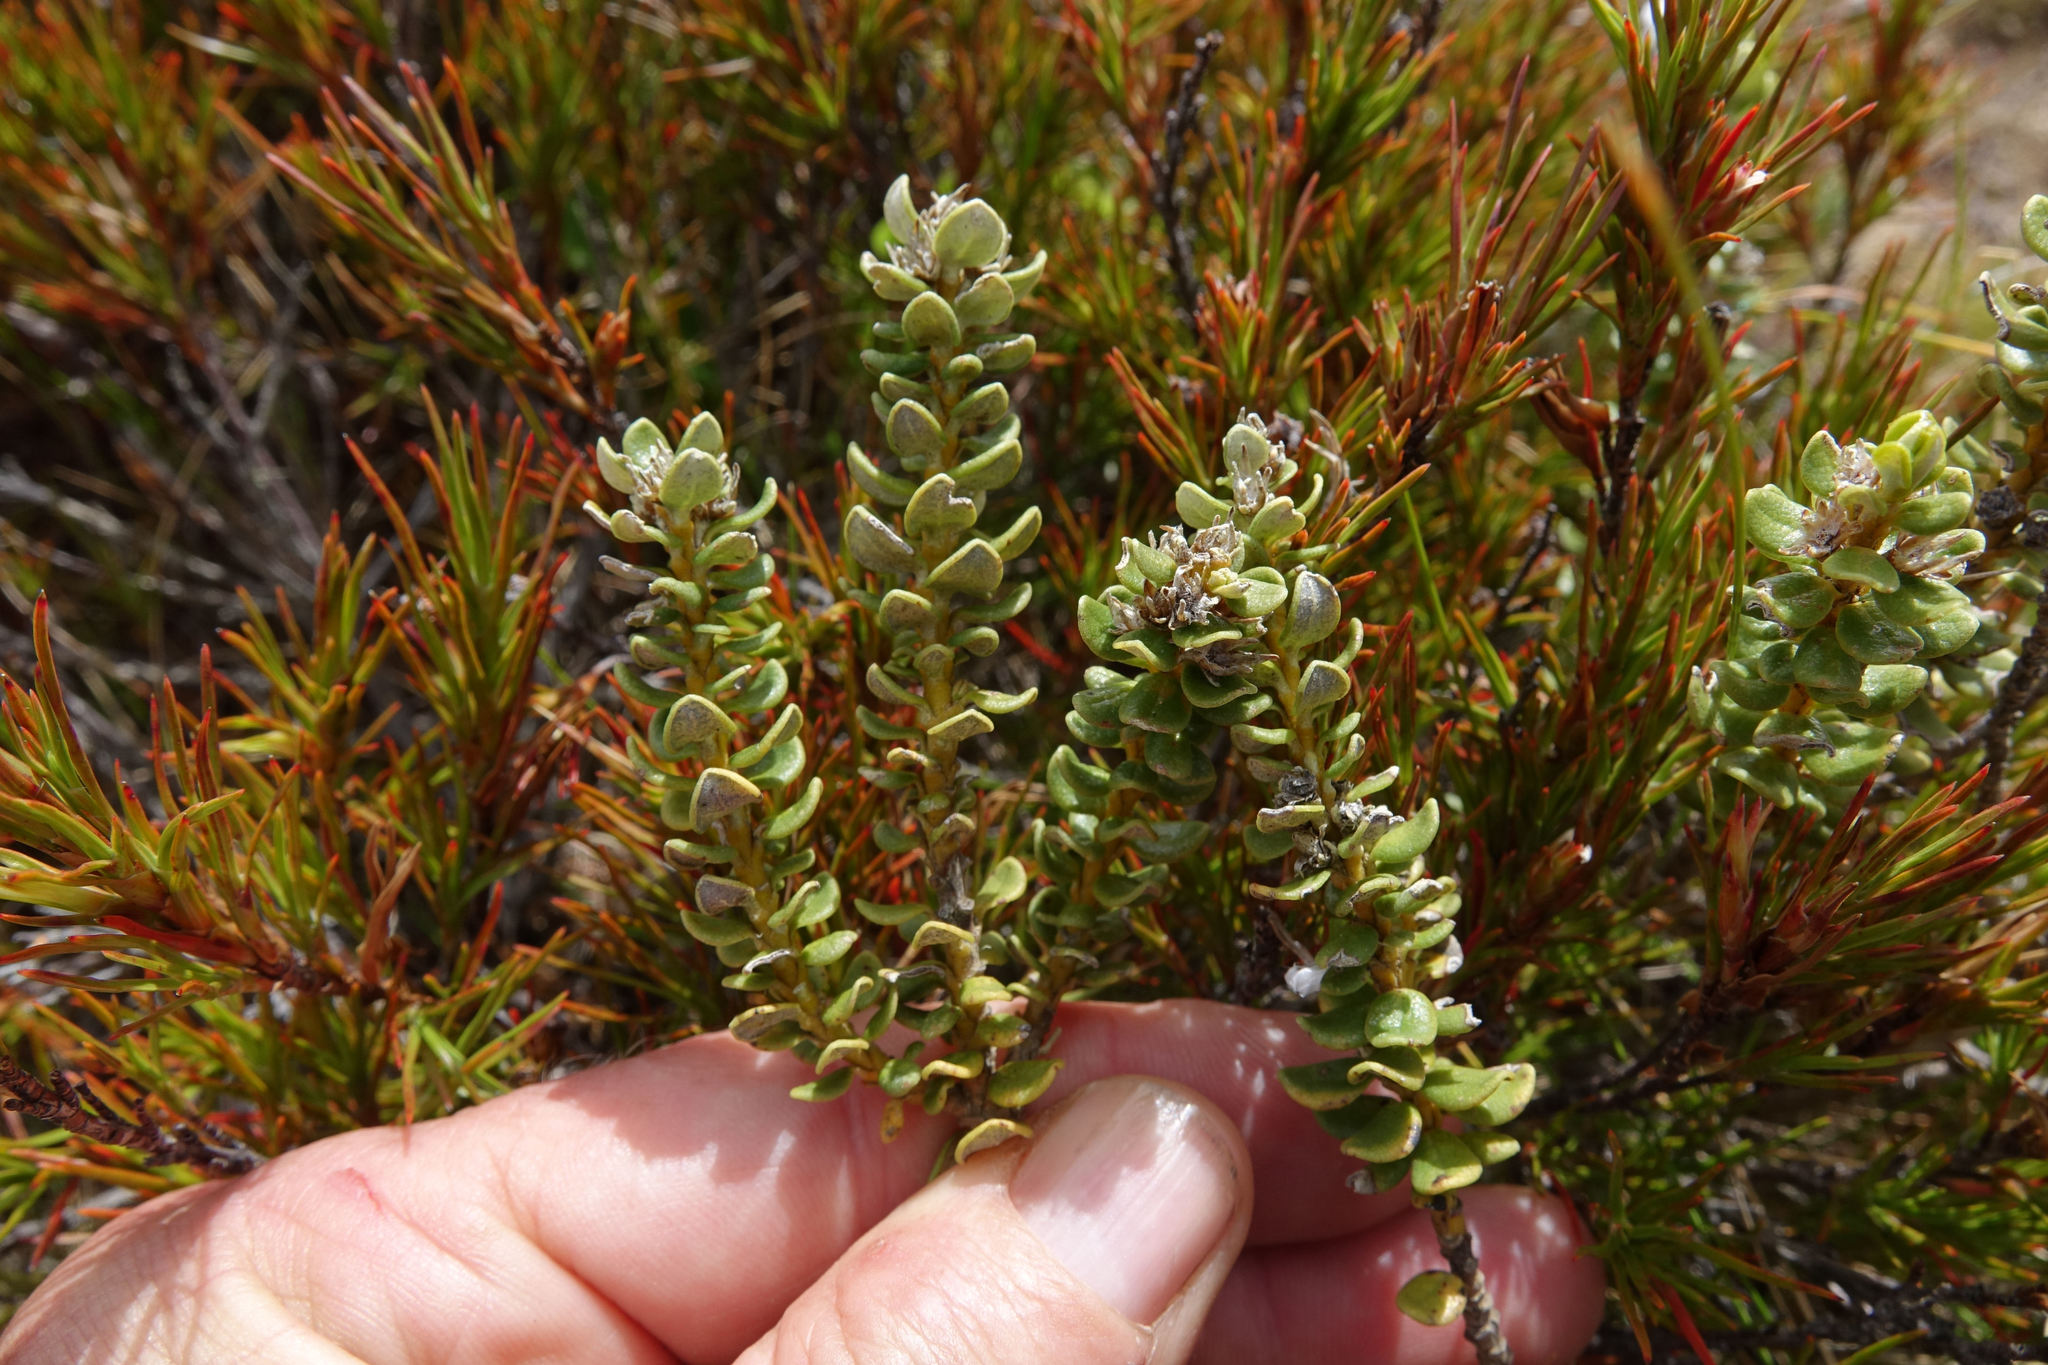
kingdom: Plantae
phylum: Tracheophyta
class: Magnoliopsida
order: Asterales
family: Asteraceae
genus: Olearia
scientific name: Olearia nummularifolia
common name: Sticky daisybush
